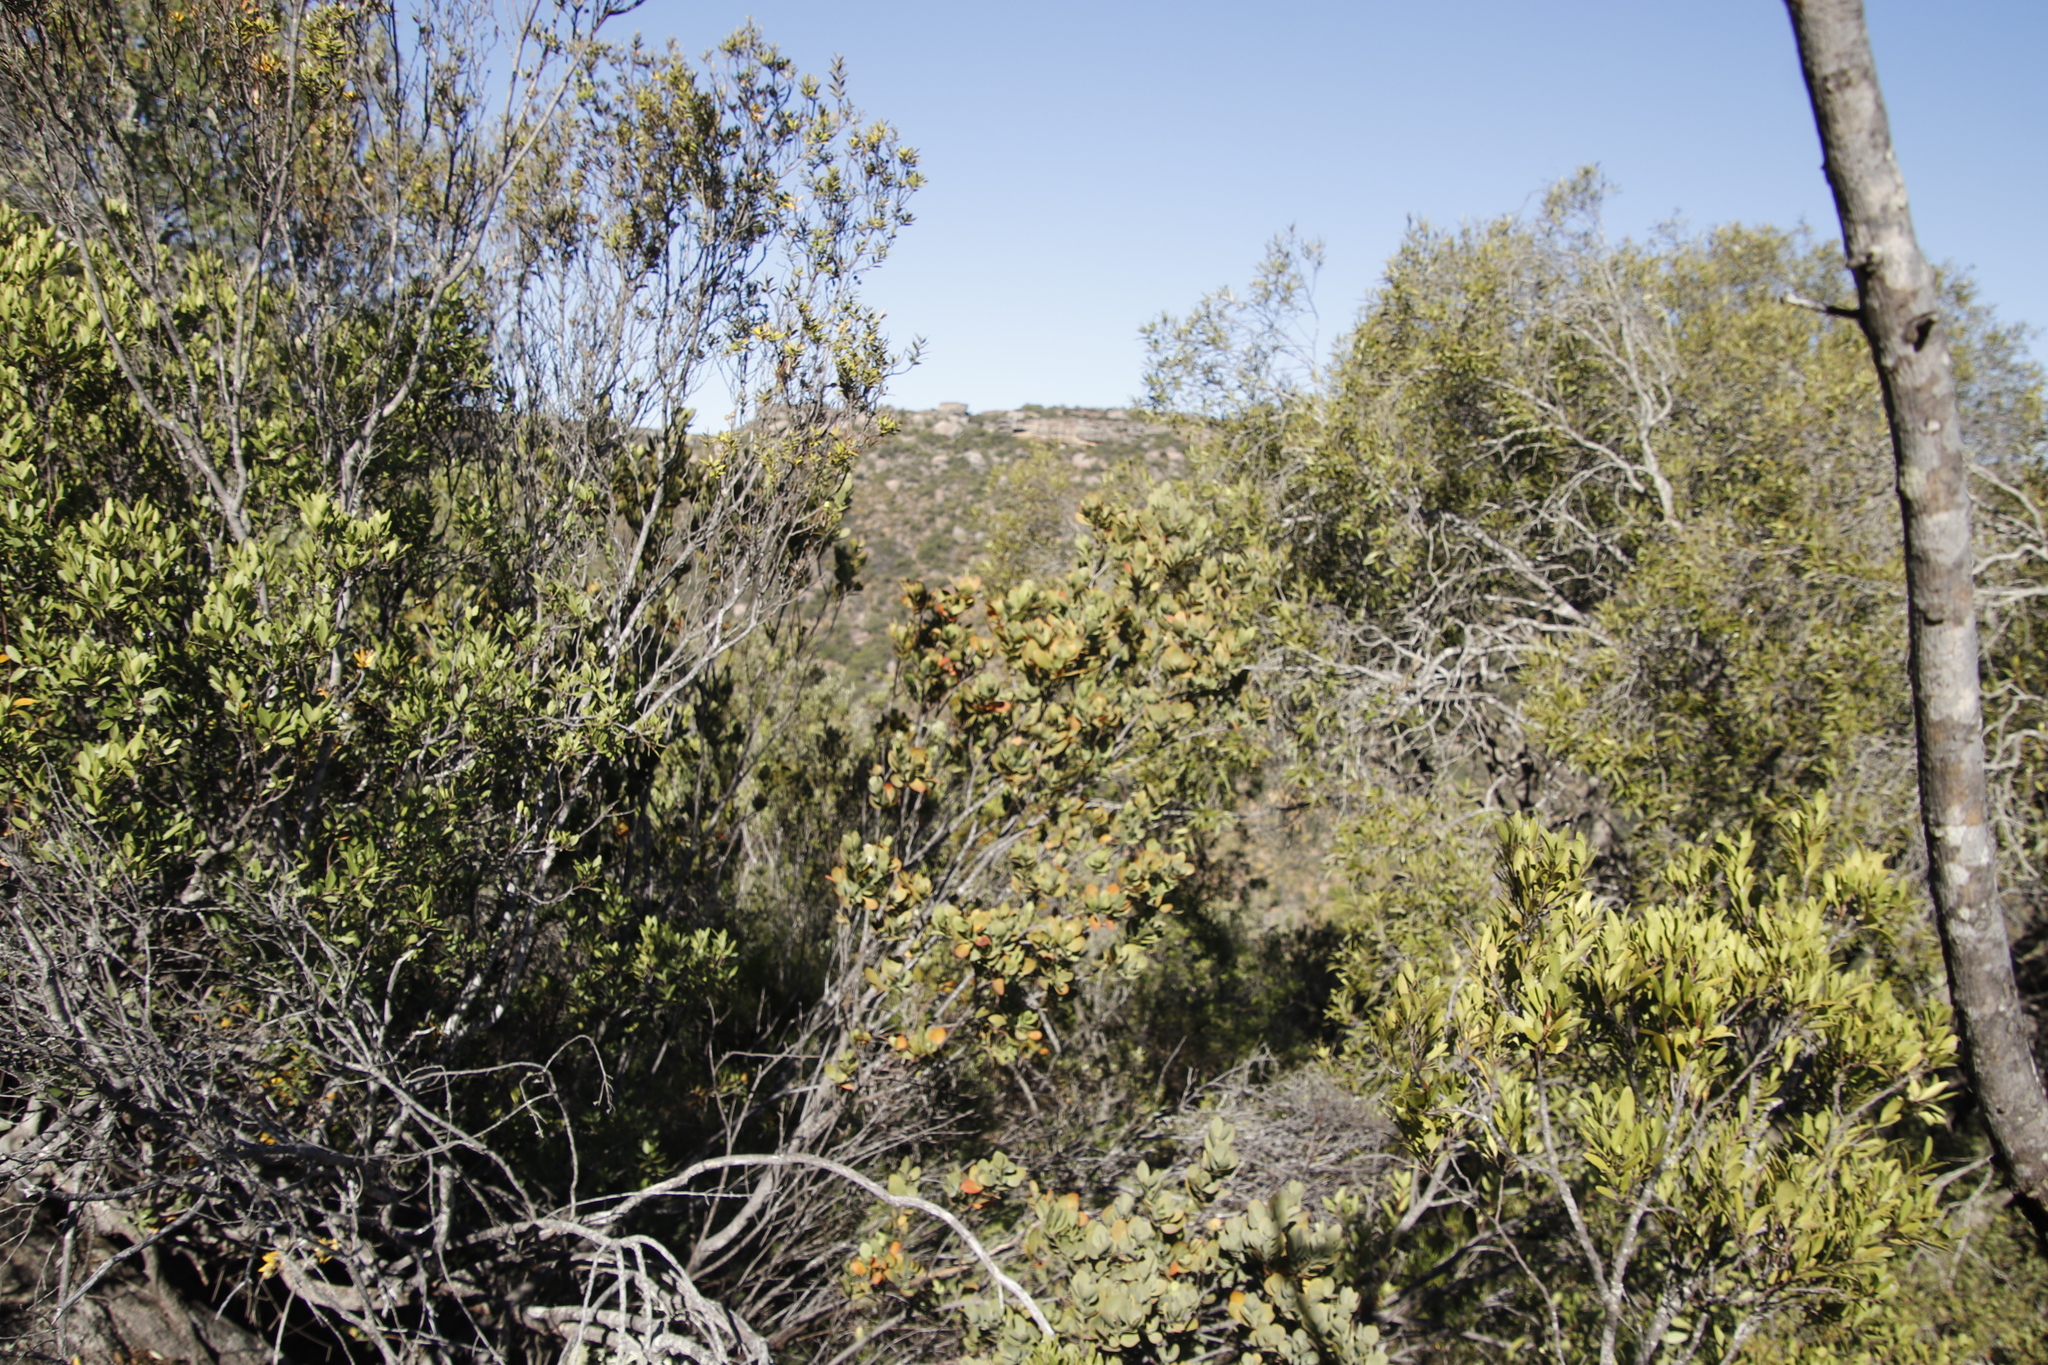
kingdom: Plantae
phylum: Tracheophyta
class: Magnoliopsida
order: Santalales
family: Santalaceae
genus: Osyris
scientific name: Osyris compressa
